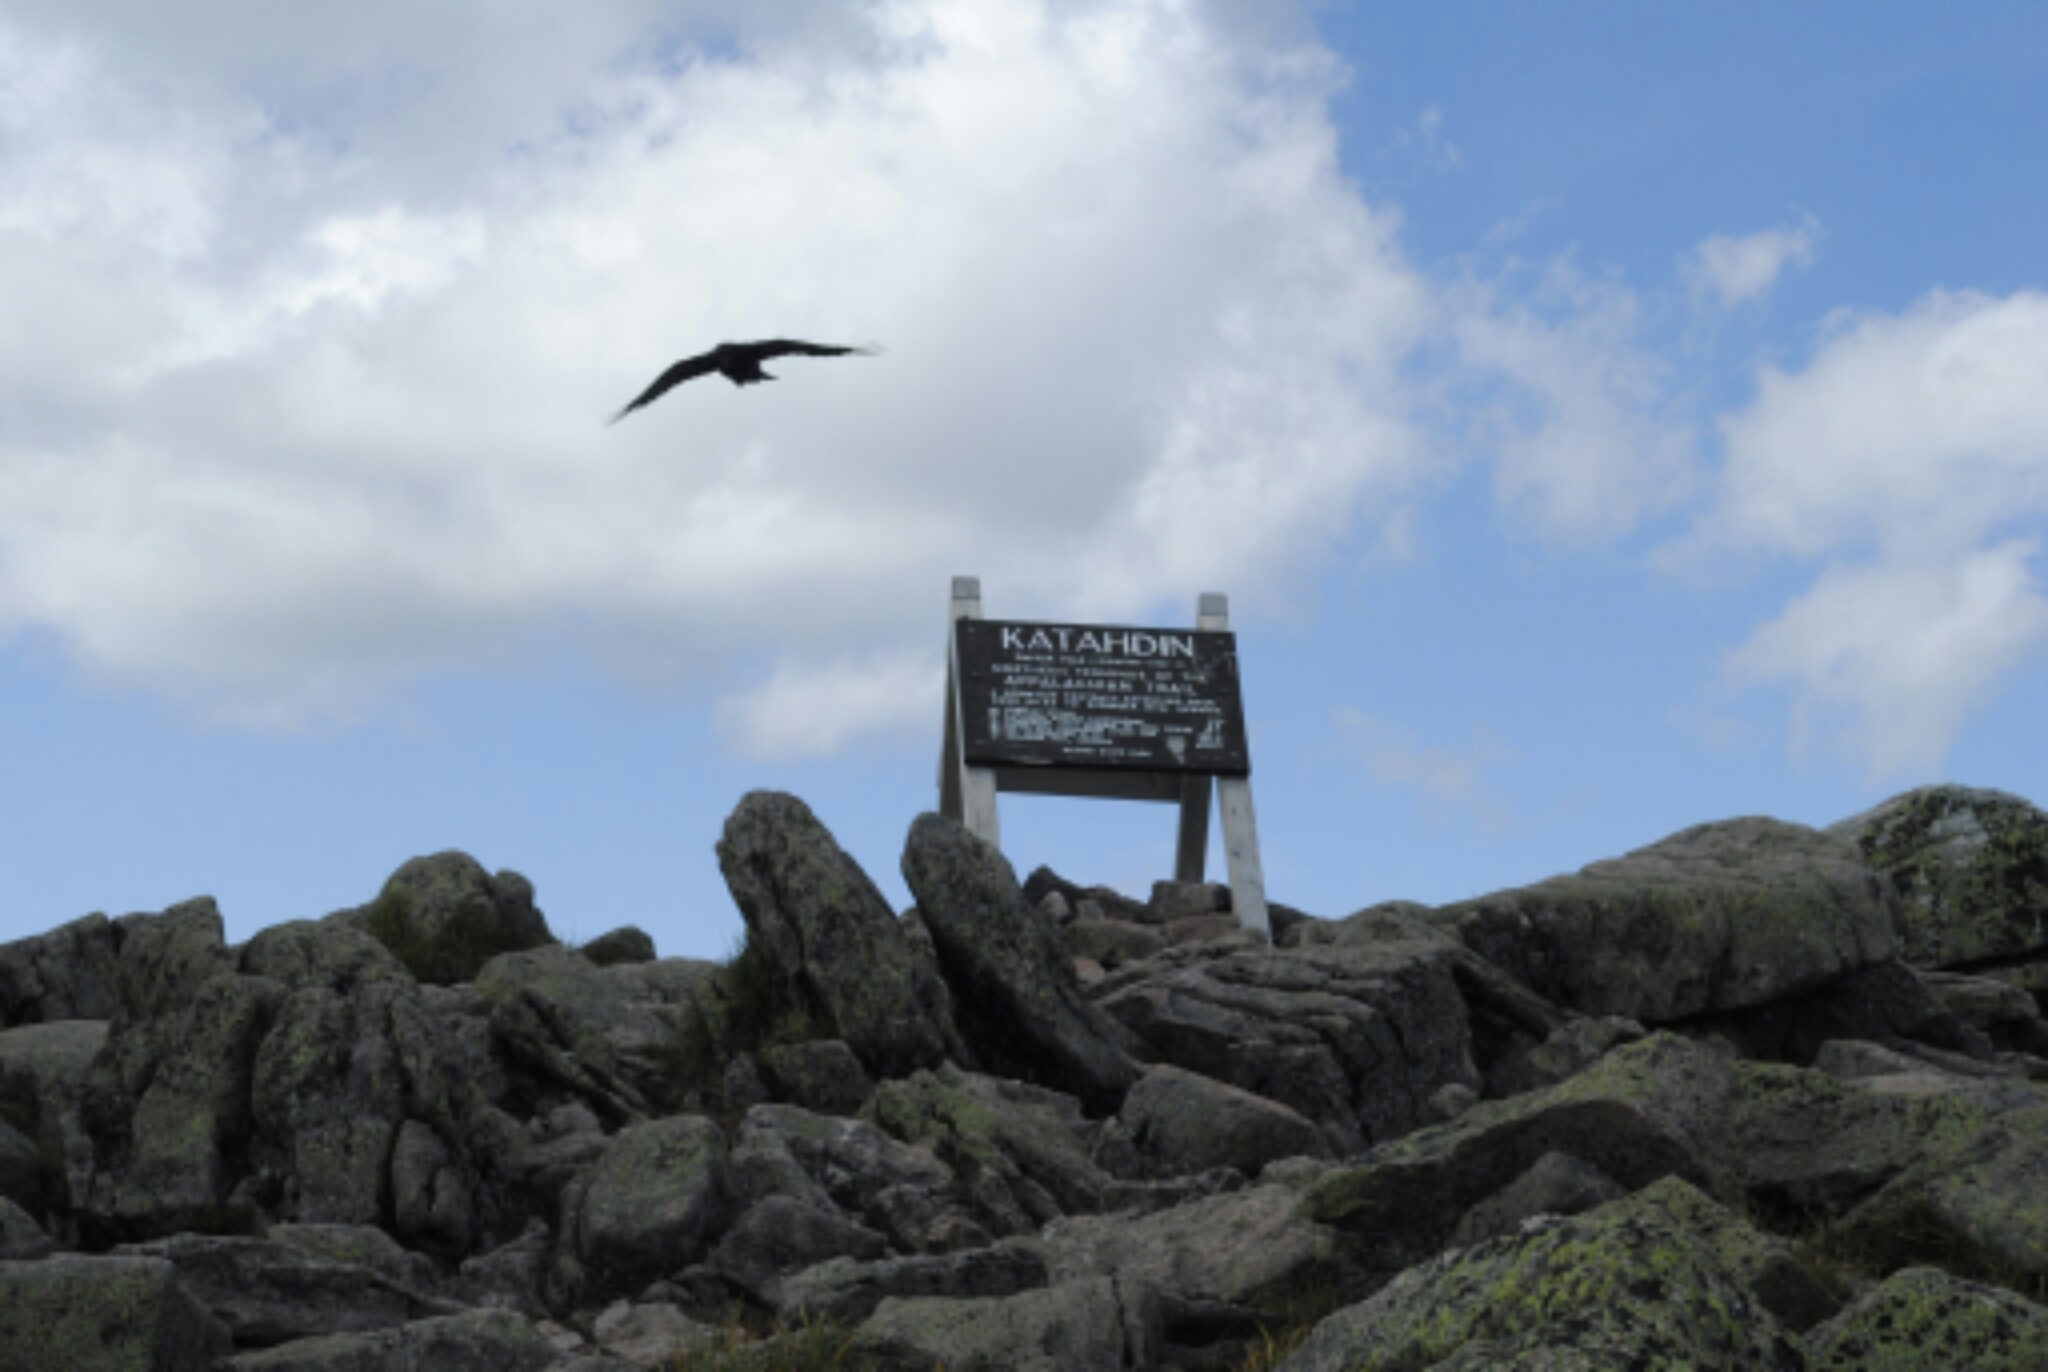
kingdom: Animalia
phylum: Chordata
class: Aves
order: Passeriformes
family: Corvidae
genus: Corvus
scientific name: Corvus
